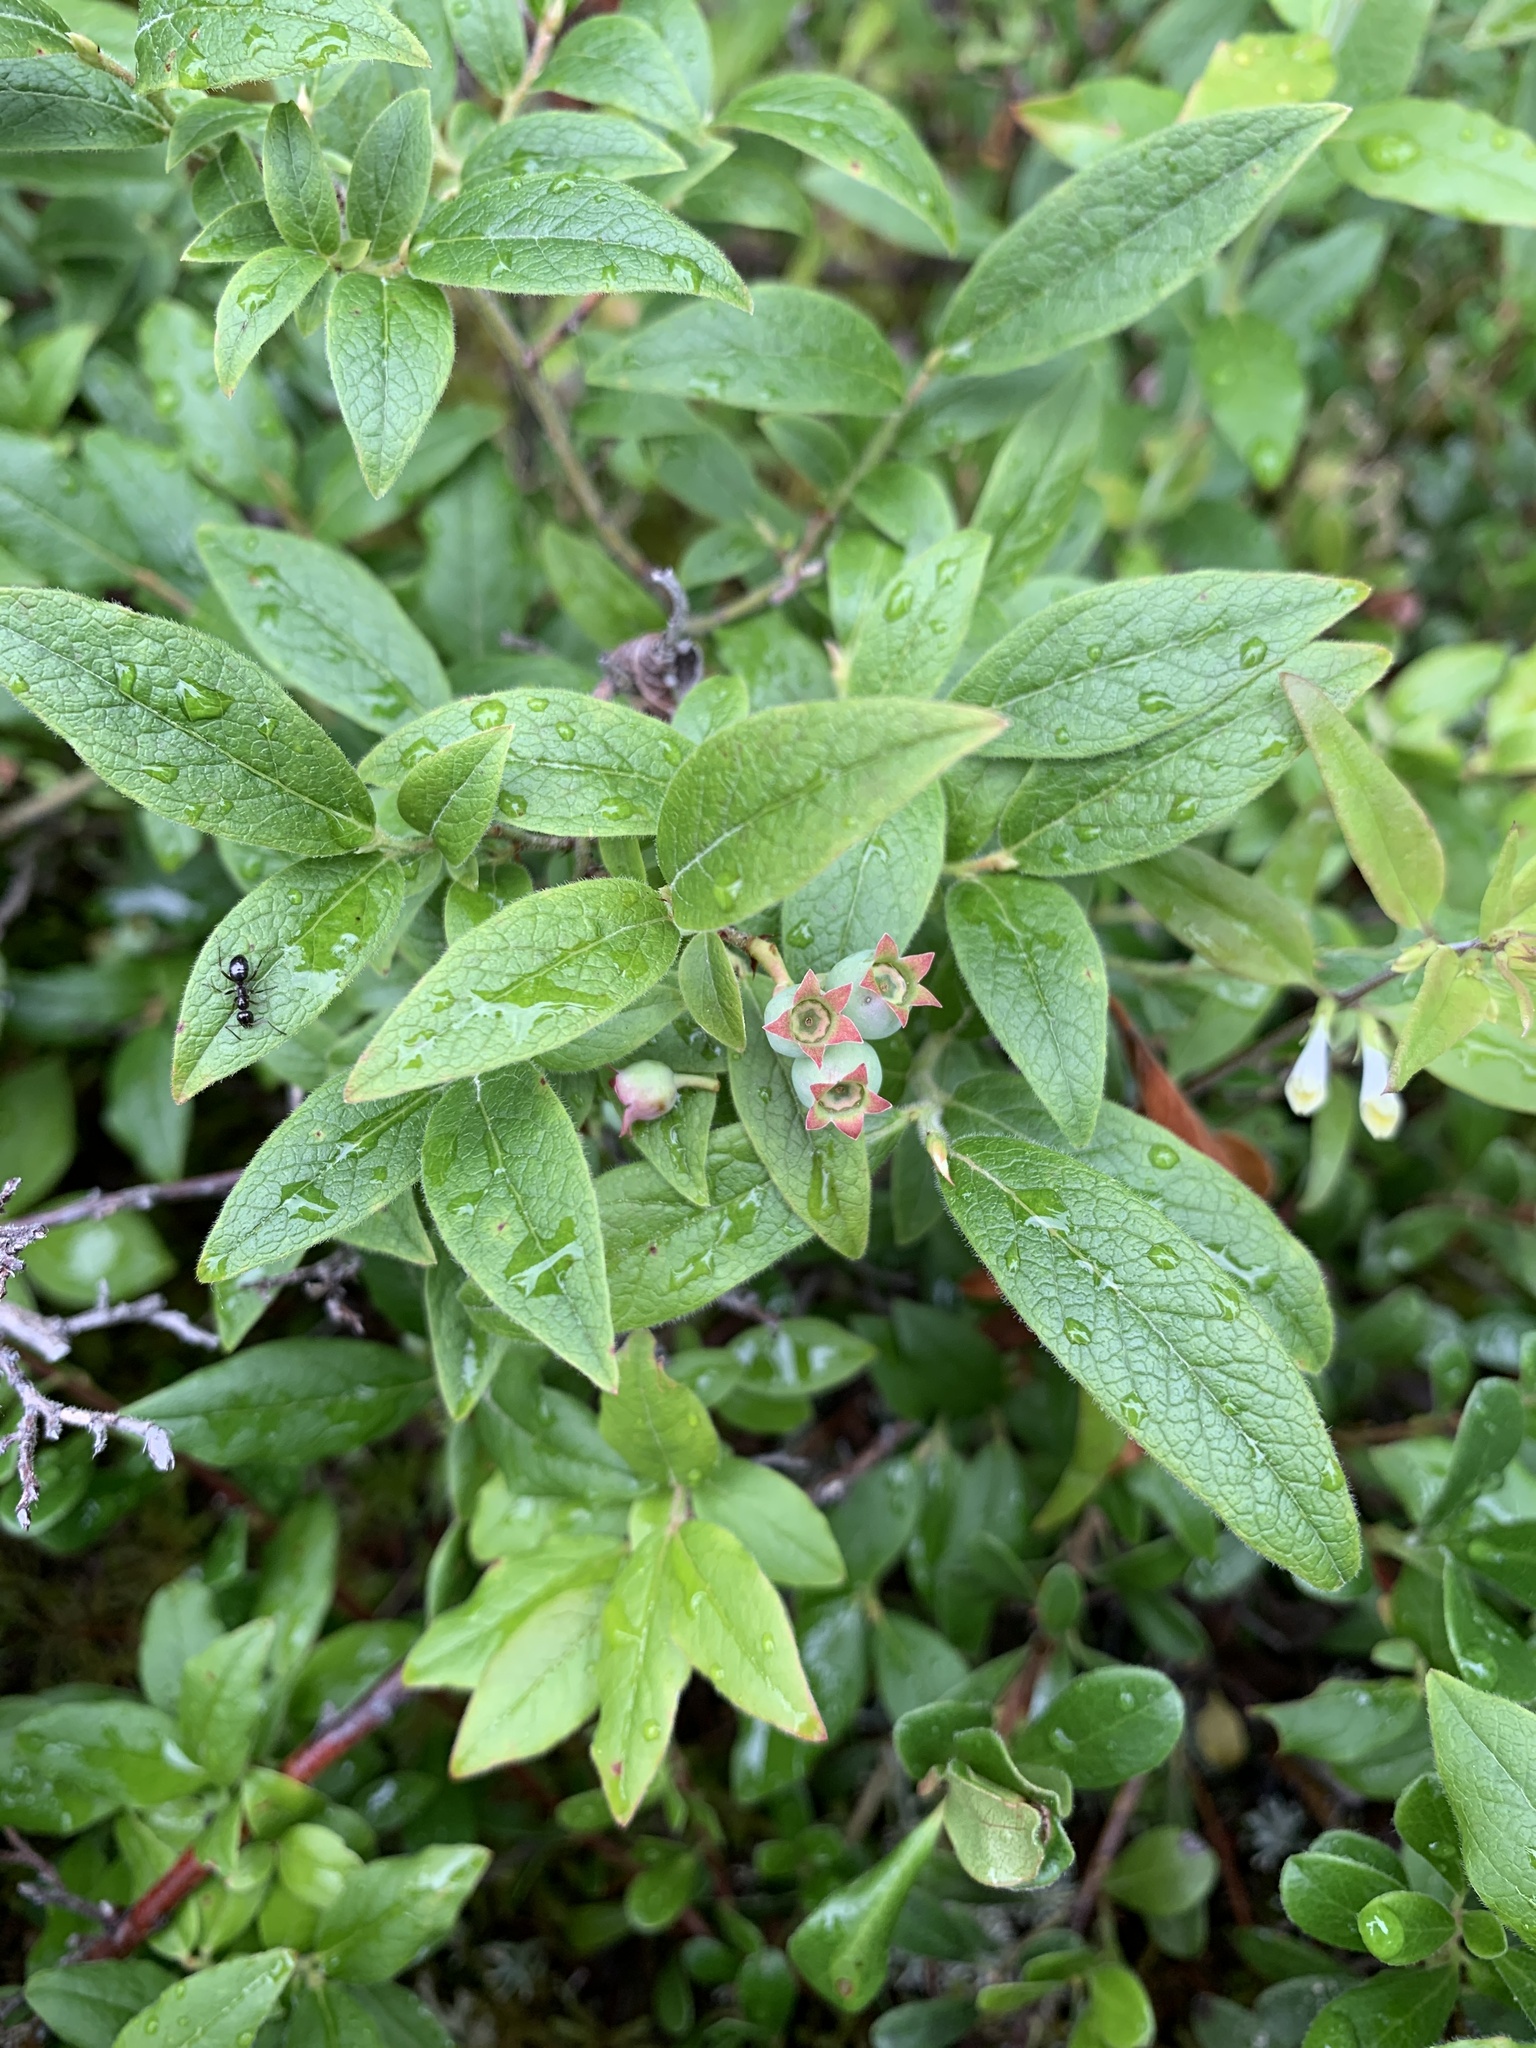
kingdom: Plantae
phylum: Tracheophyta
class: Magnoliopsida
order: Ericales
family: Ericaceae
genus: Vaccinium
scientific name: Vaccinium myrtilloides
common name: Canada blueberry
